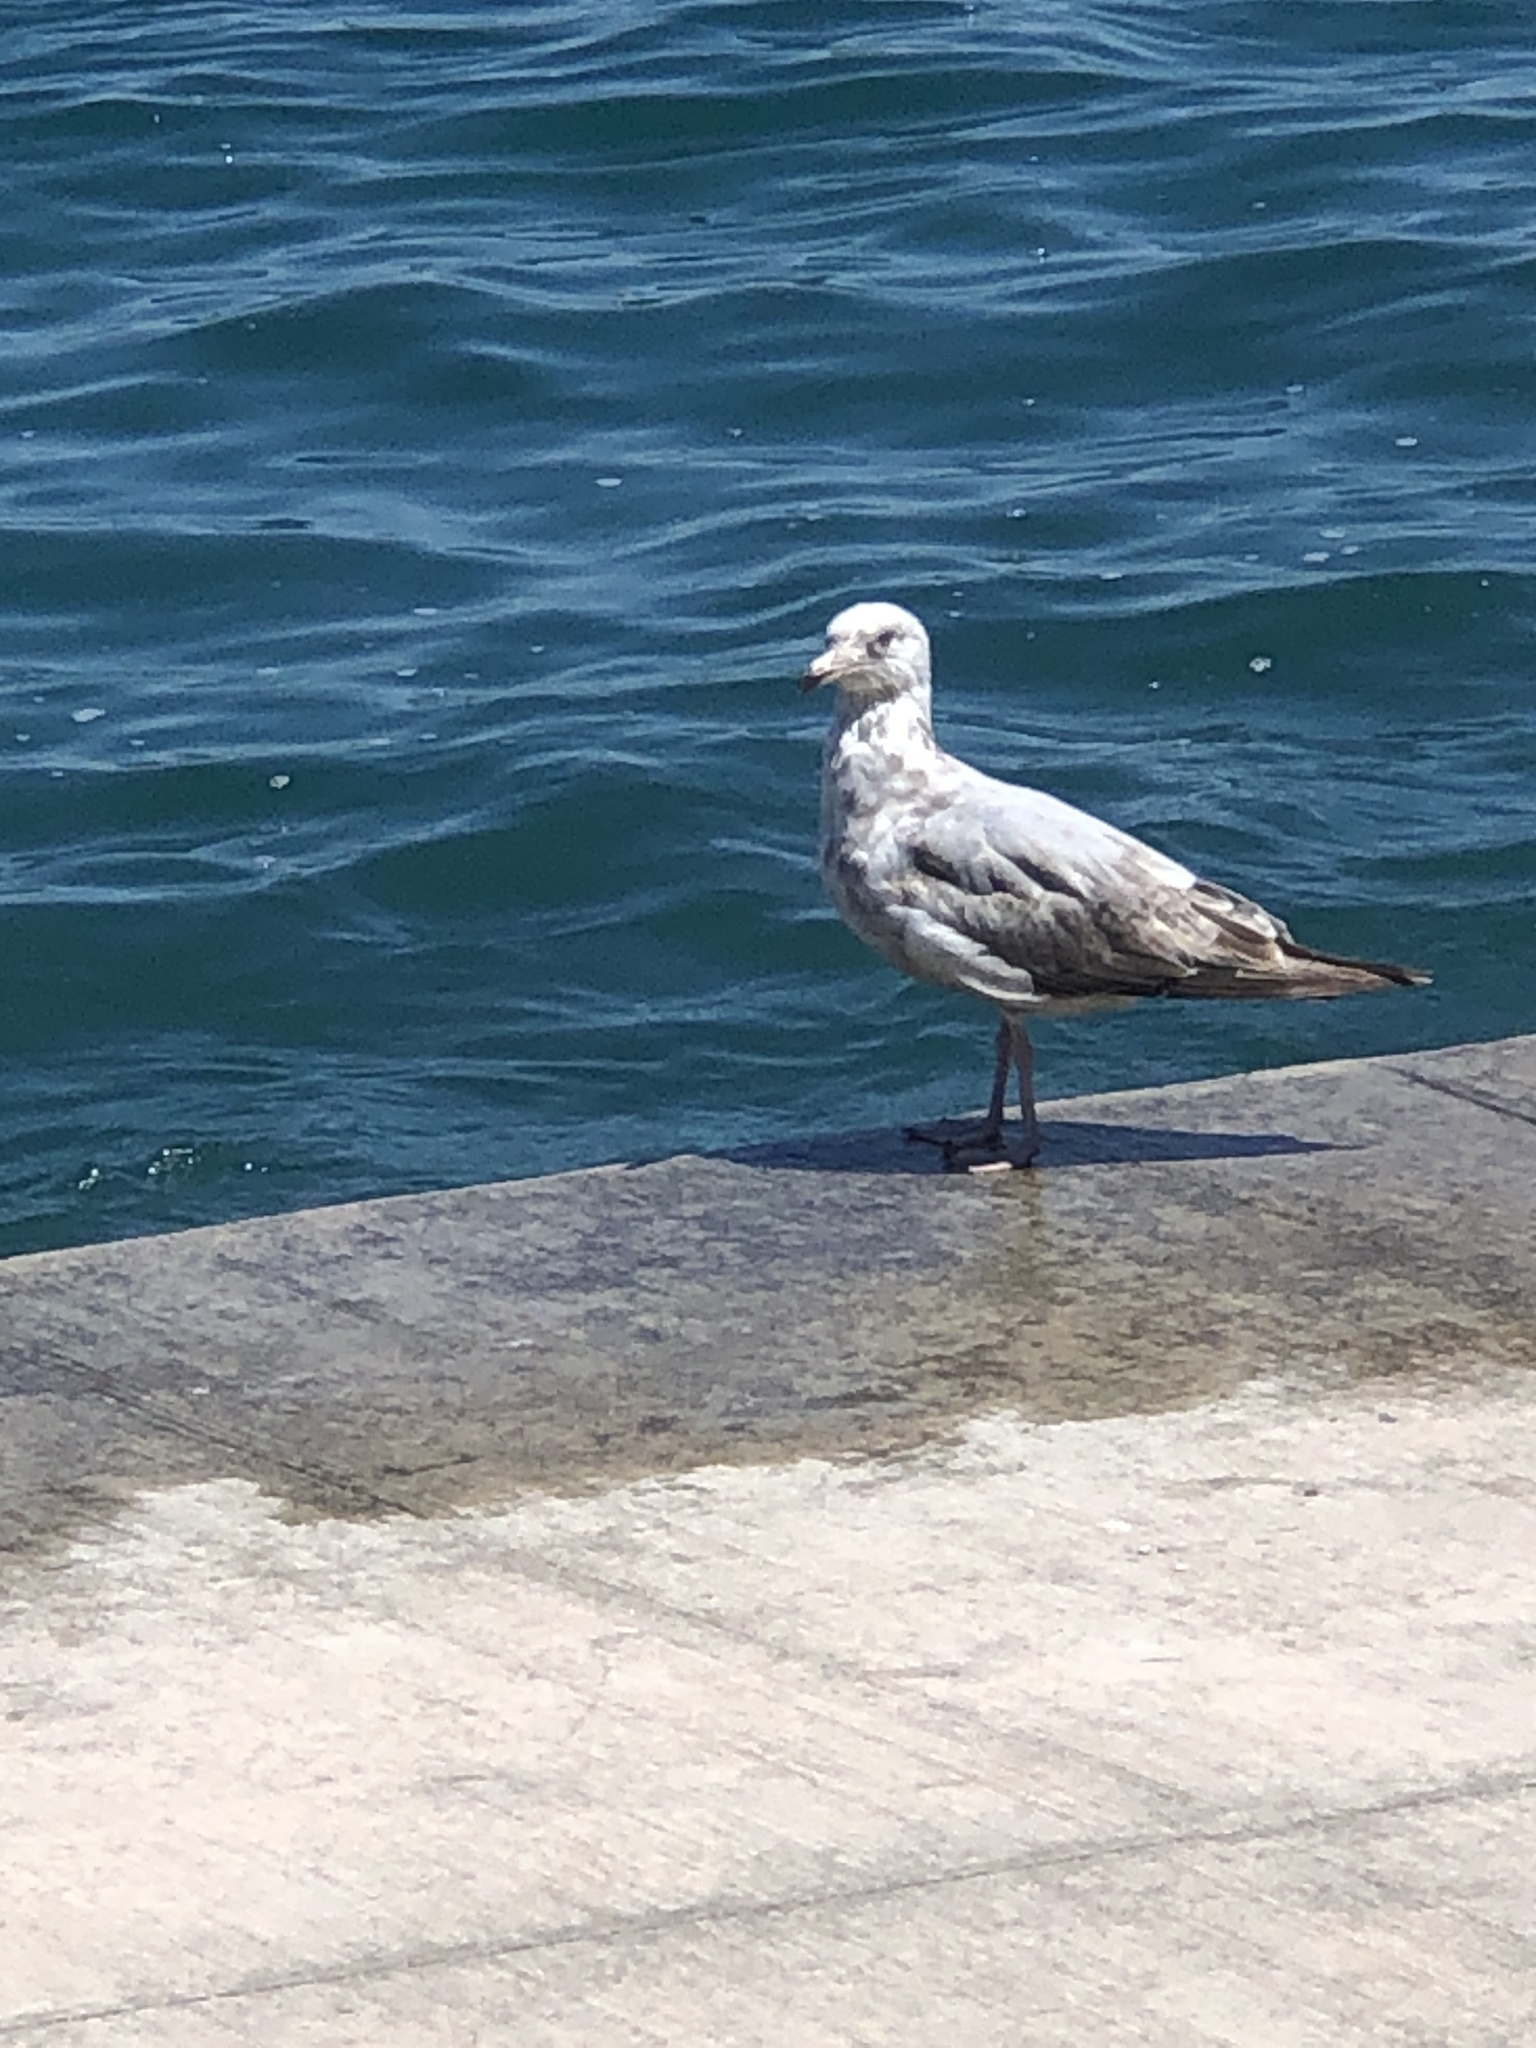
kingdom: Animalia
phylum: Chordata
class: Aves
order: Charadriiformes
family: Laridae
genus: Larus
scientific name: Larus argentatus
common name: Herring gull
